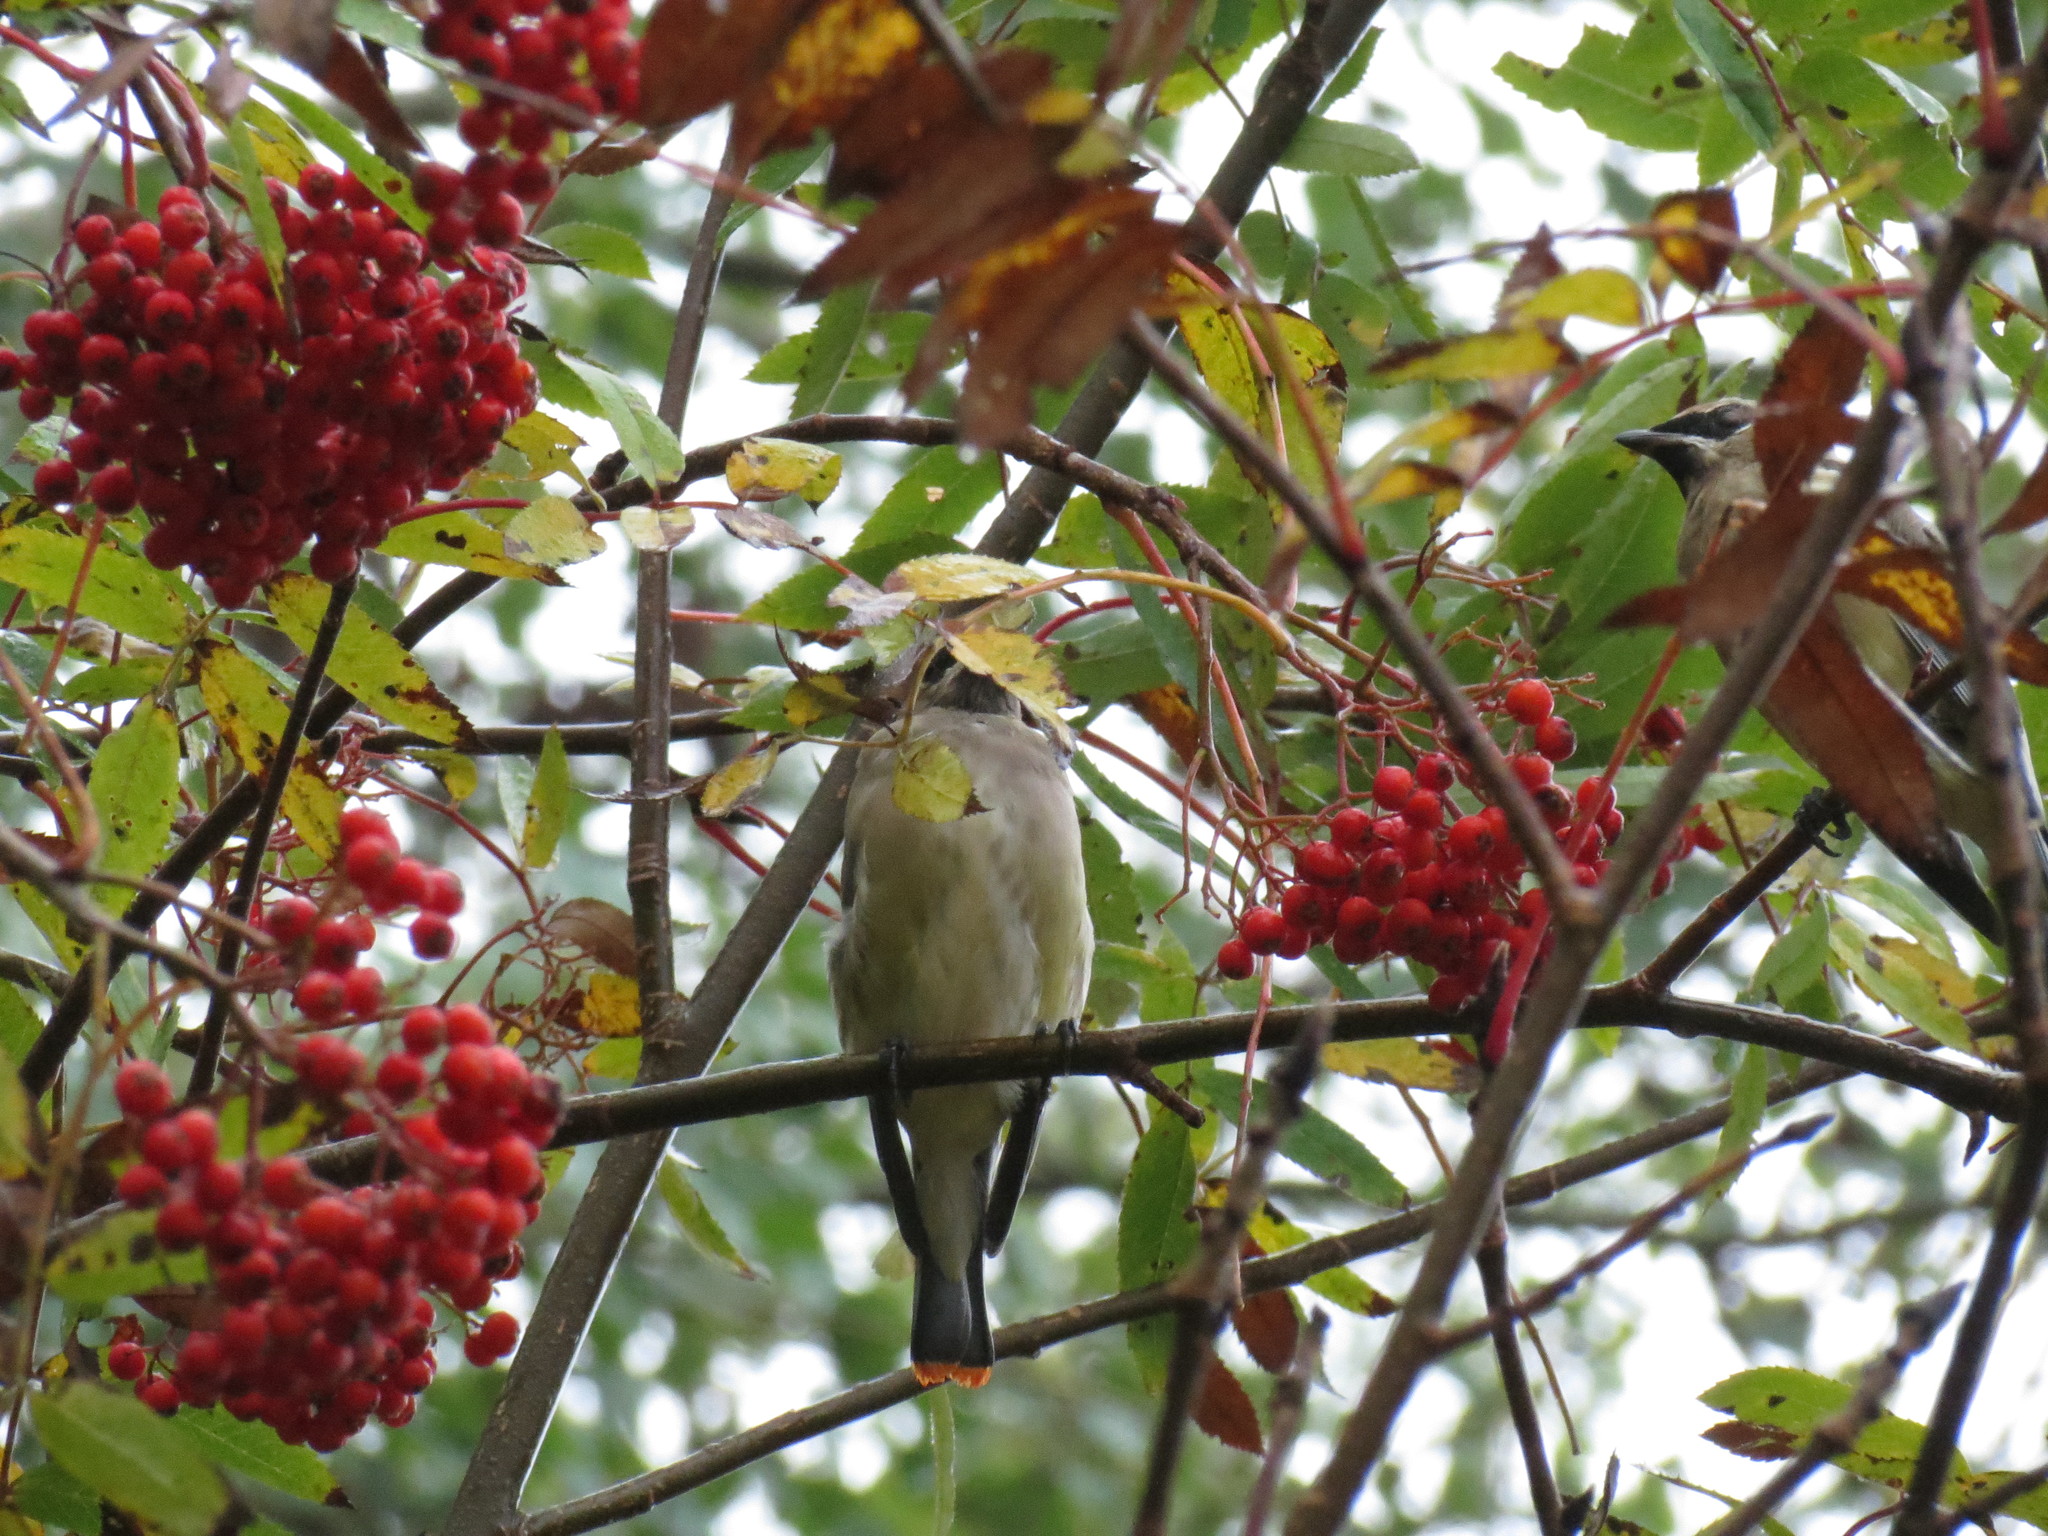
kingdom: Animalia
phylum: Chordata
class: Aves
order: Passeriformes
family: Bombycillidae
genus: Bombycilla
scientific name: Bombycilla cedrorum
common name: Cedar waxwing
